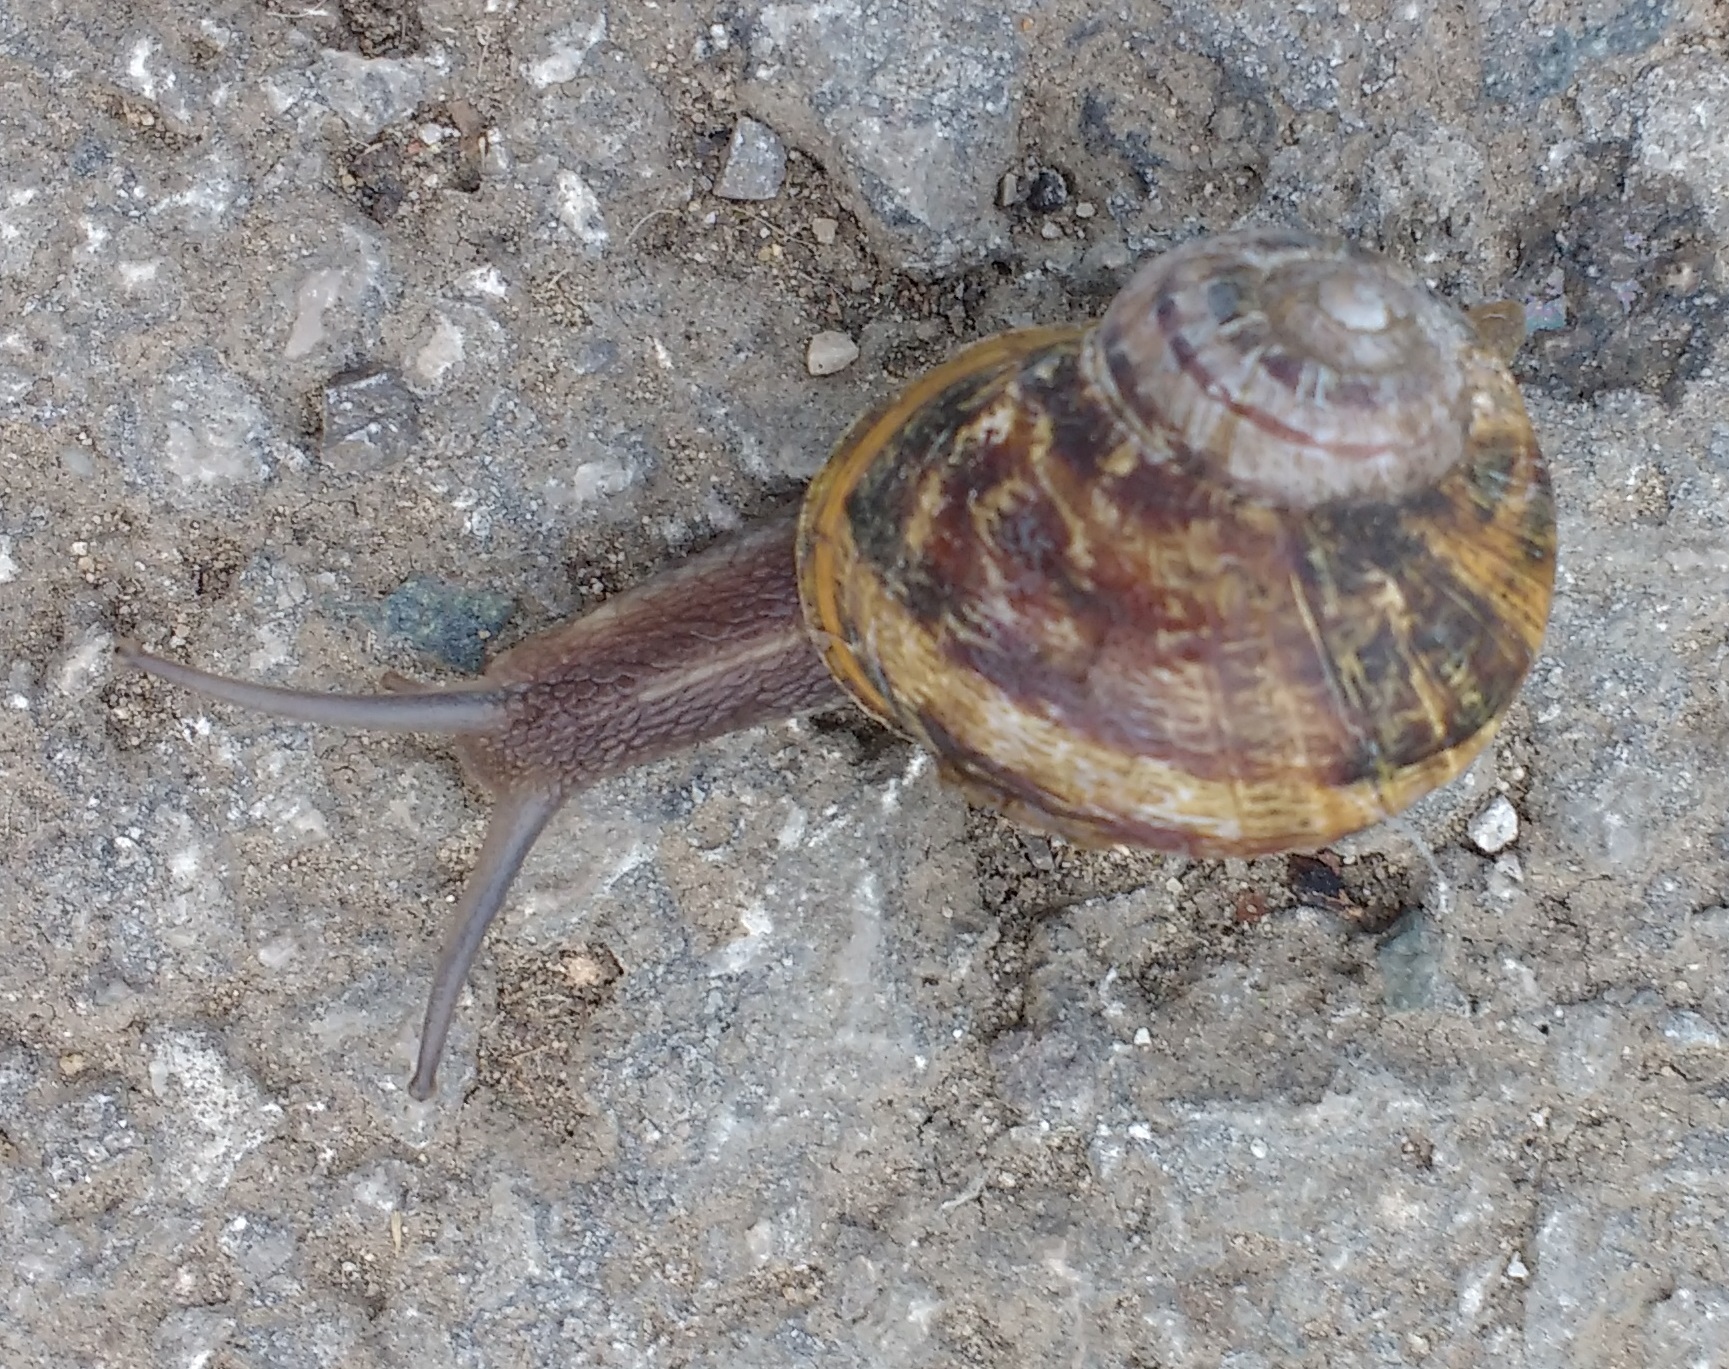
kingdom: Animalia
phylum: Mollusca
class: Gastropoda
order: Stylommatophora
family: Helicidae
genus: Cornu
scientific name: Cornu aspersum
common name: Brown garden snail
